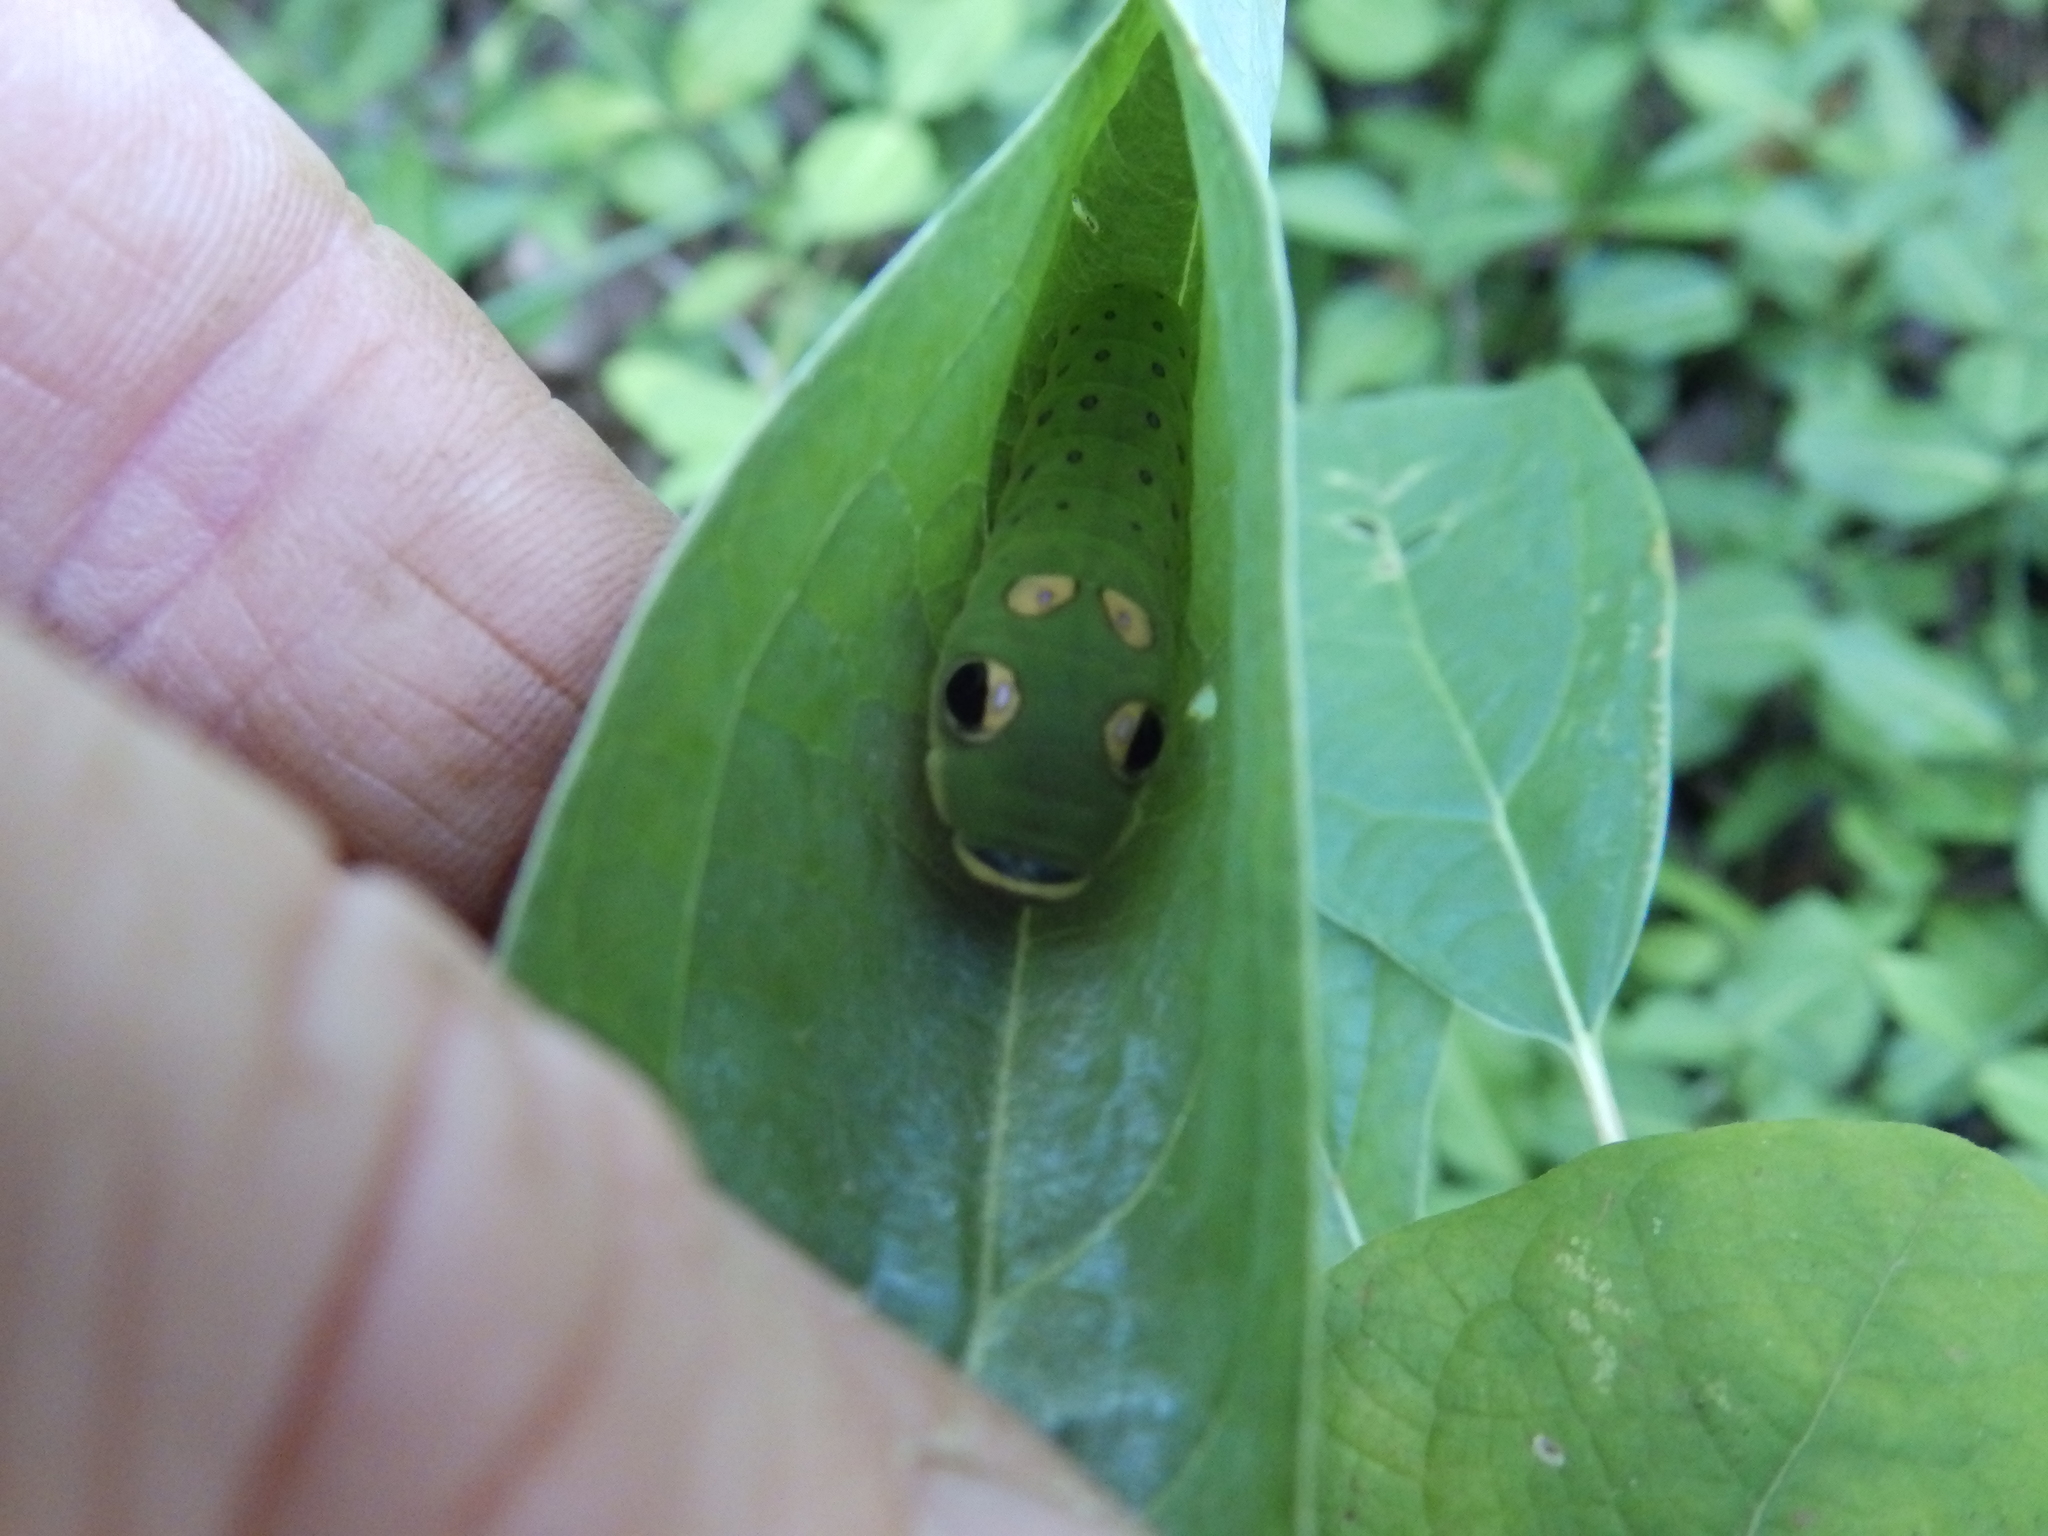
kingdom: Animalia
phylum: Arthropoda
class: Insecta
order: Lepidoptera
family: Papilionidae
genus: Papilio
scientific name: Papilio troilus
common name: Spicebush swallowtail
